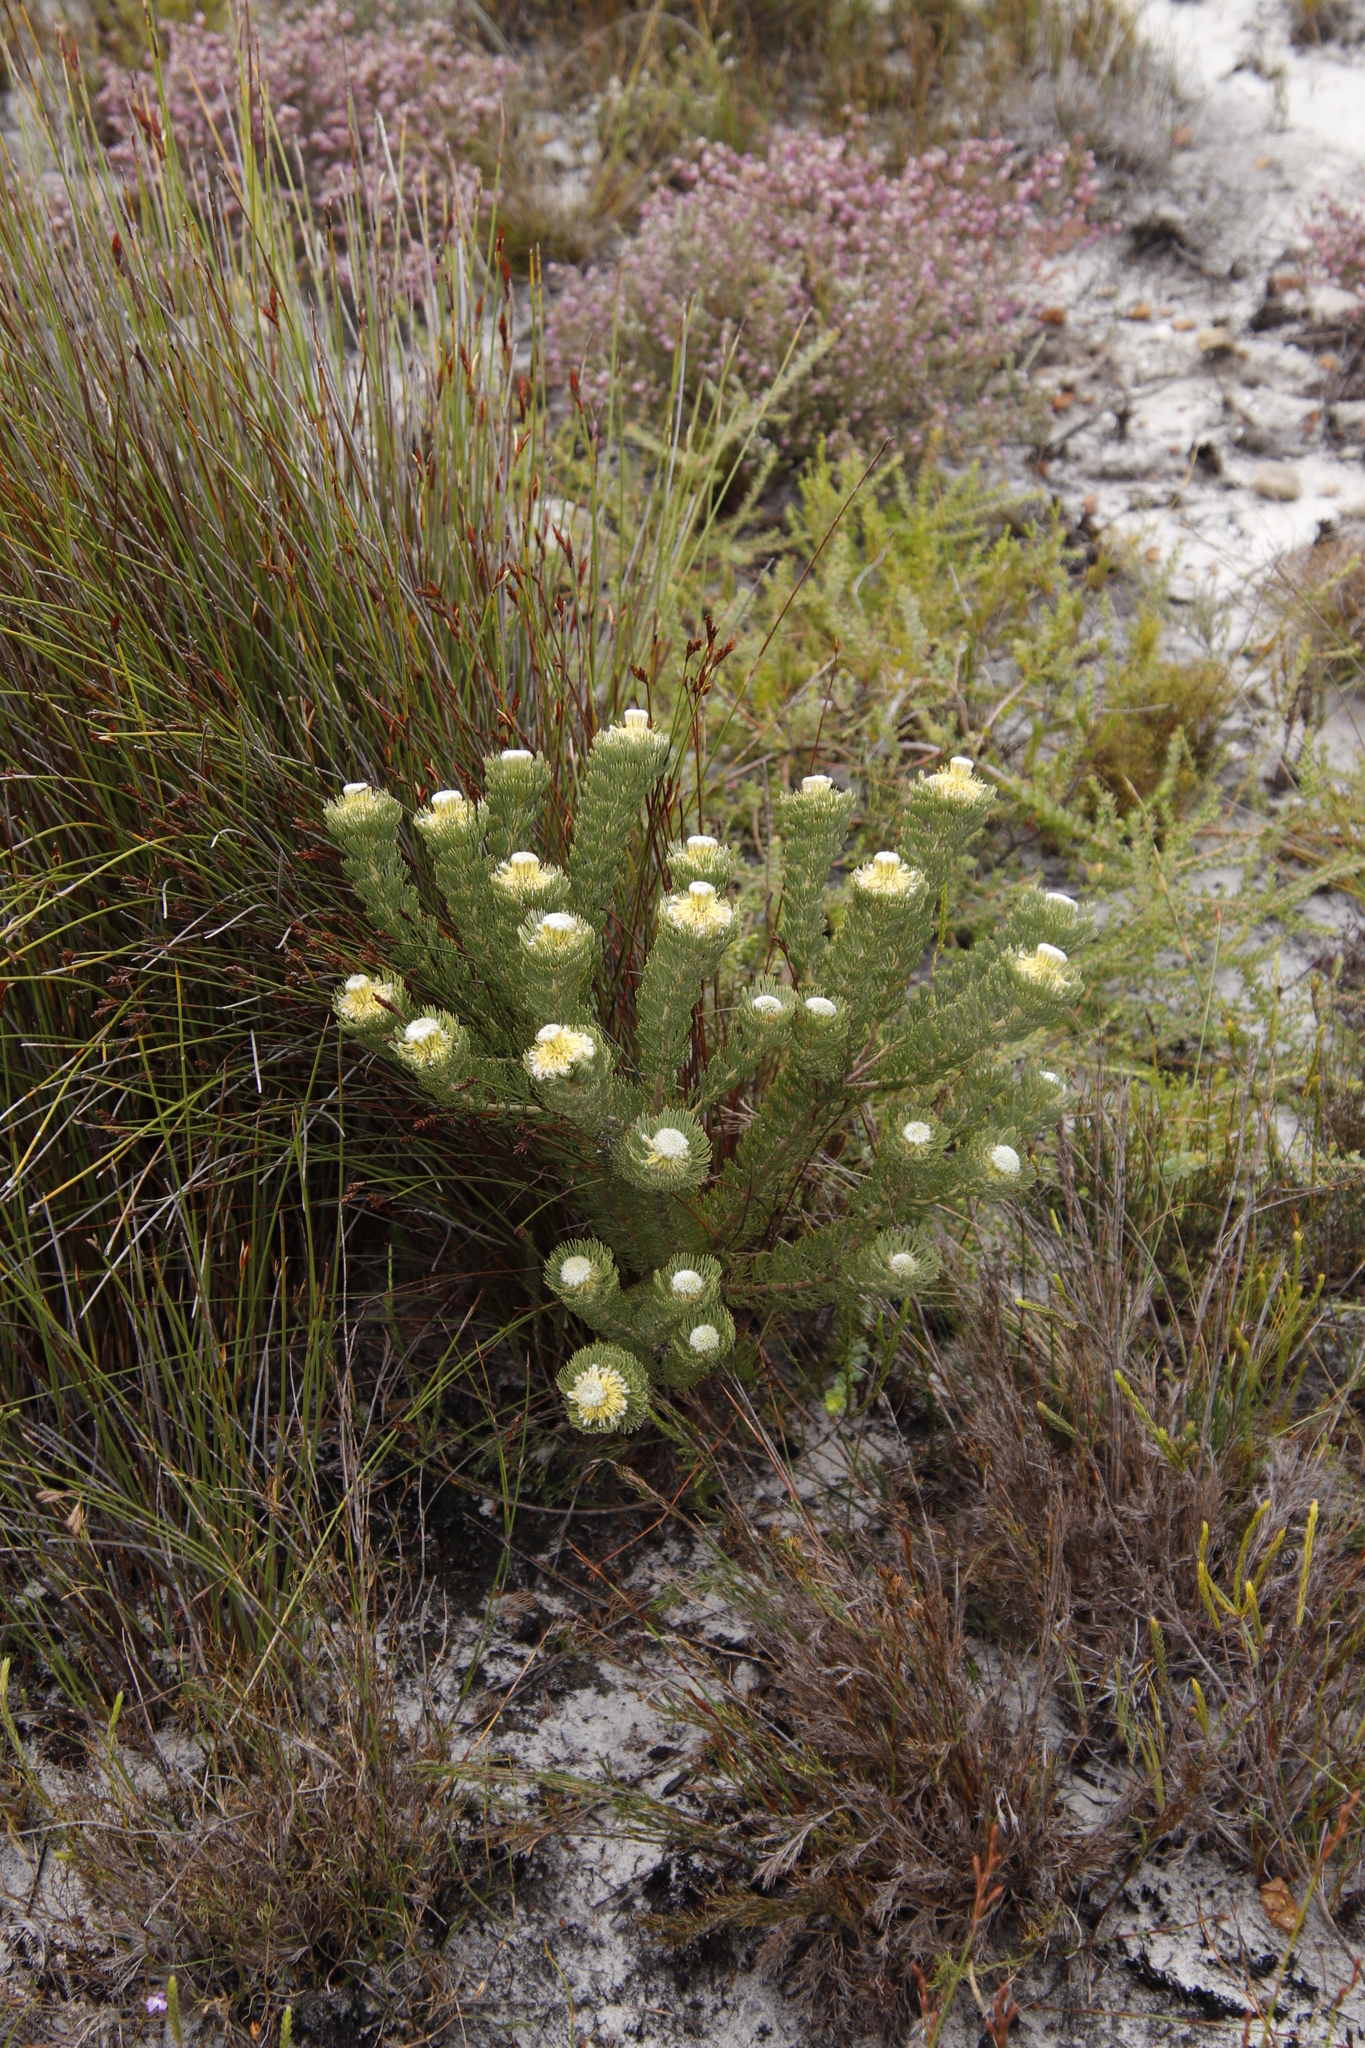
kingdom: Plantae
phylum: Tracheophyta
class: Magnoliopsida
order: Proteales
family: Proteaceae
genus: Serruria
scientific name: Serruria villosa
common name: Golden spiderhead
